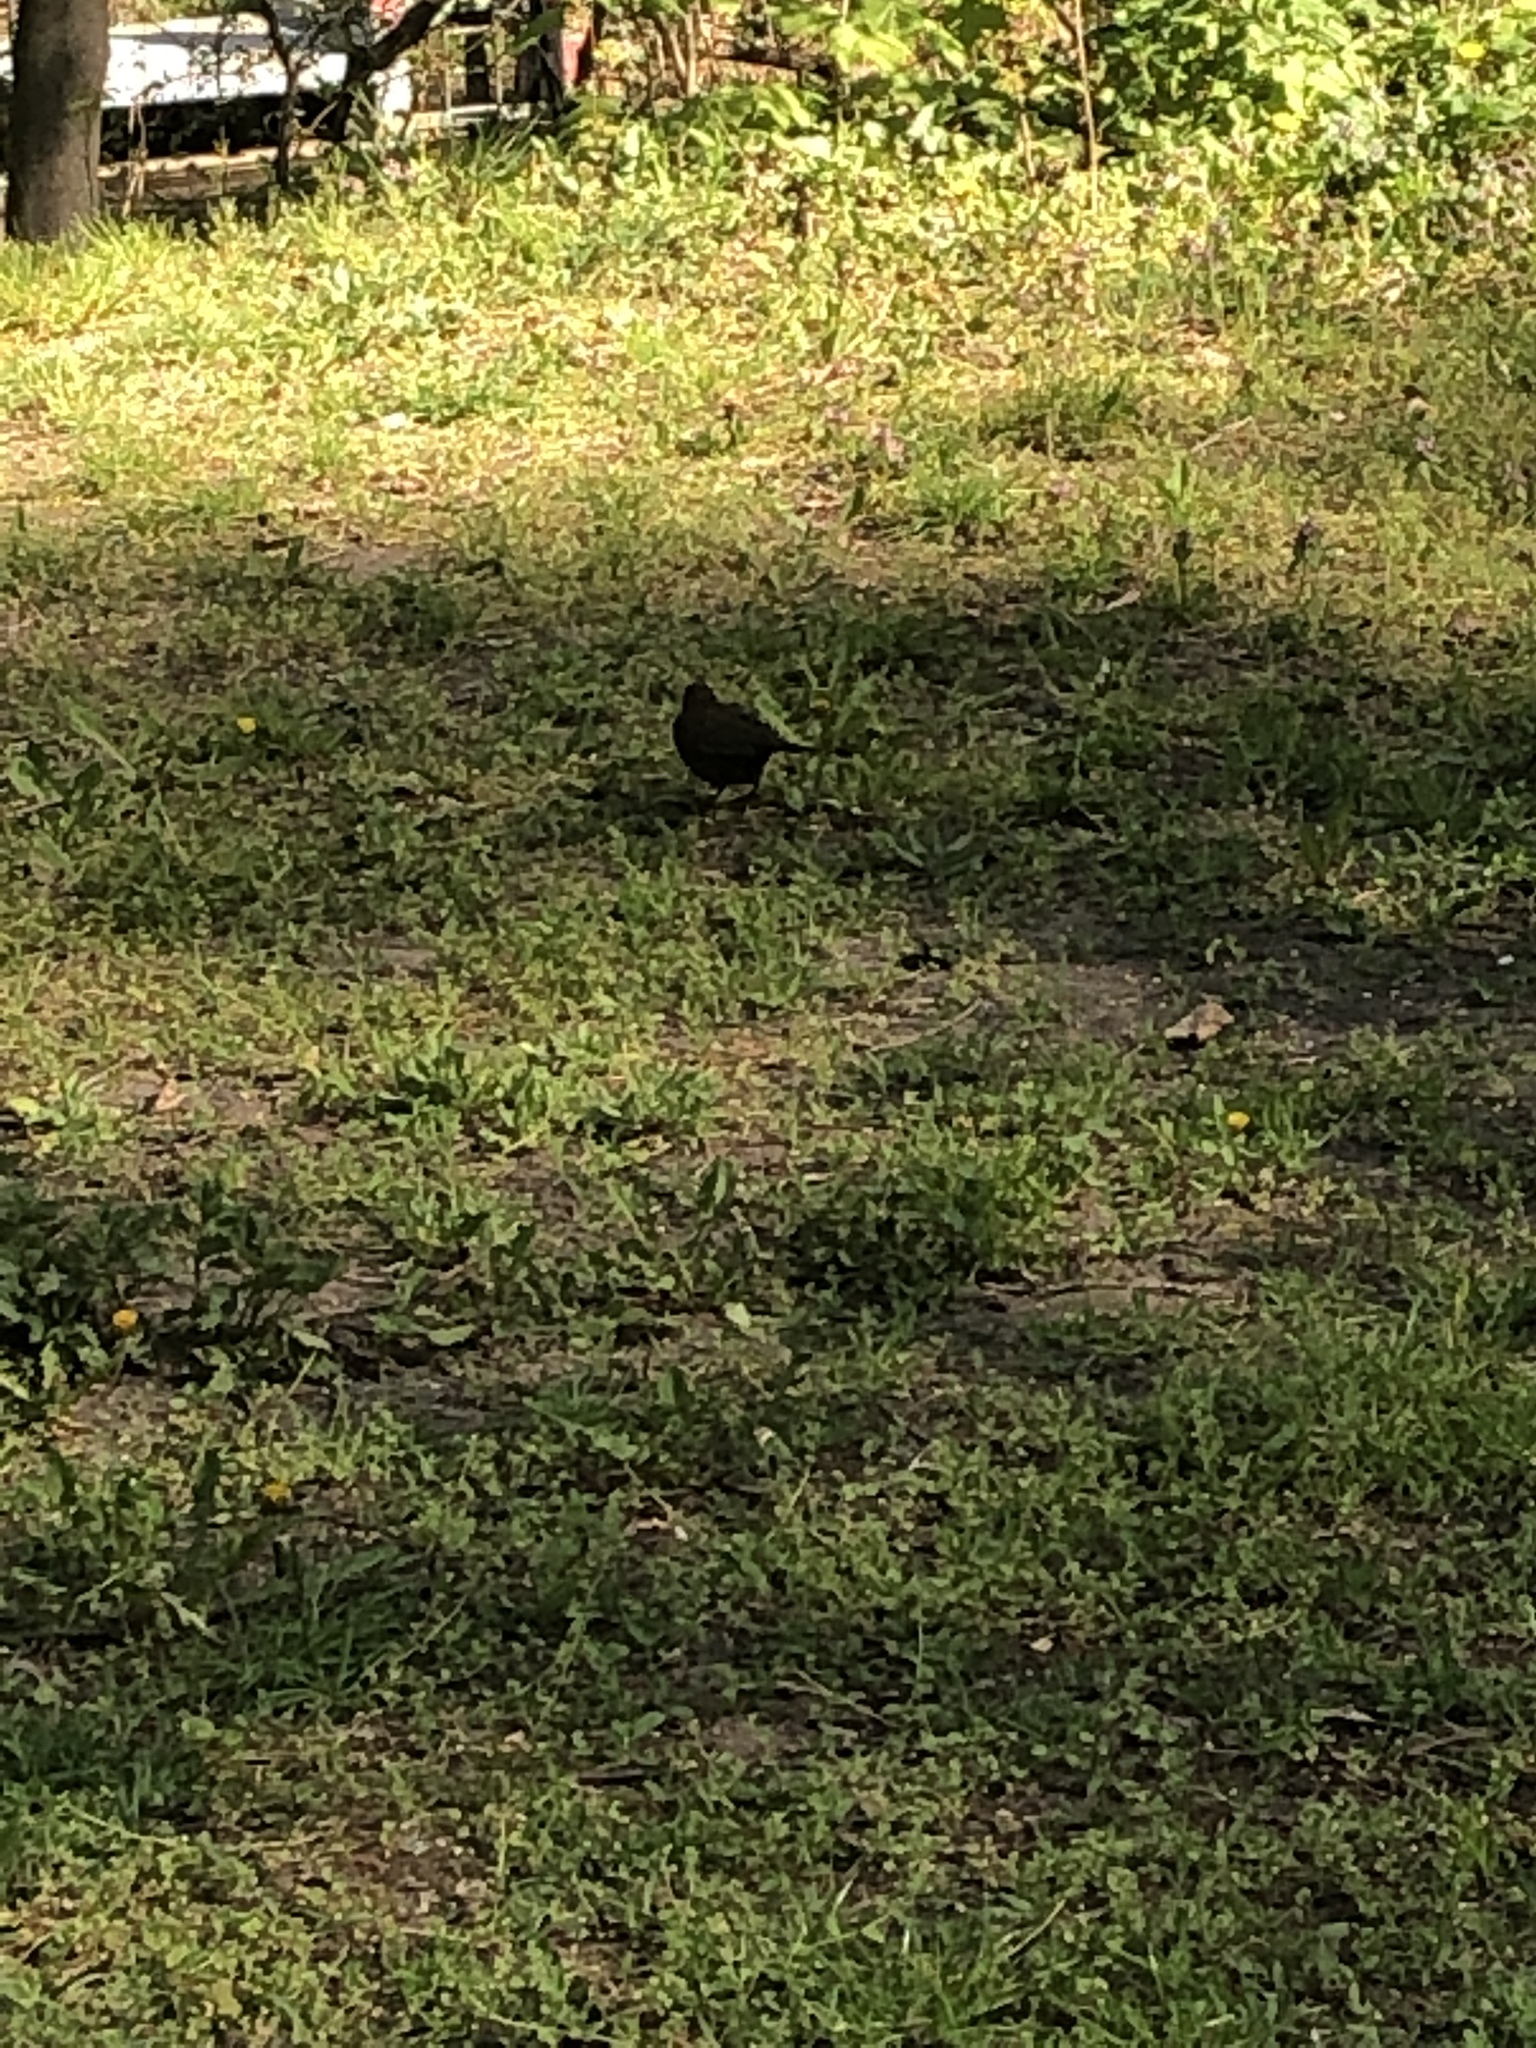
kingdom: Animalia
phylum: Chordata
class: Aves
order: Passeriformes
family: Turdidae
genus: Turdus
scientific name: Turdus merula
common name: Common blackbird
